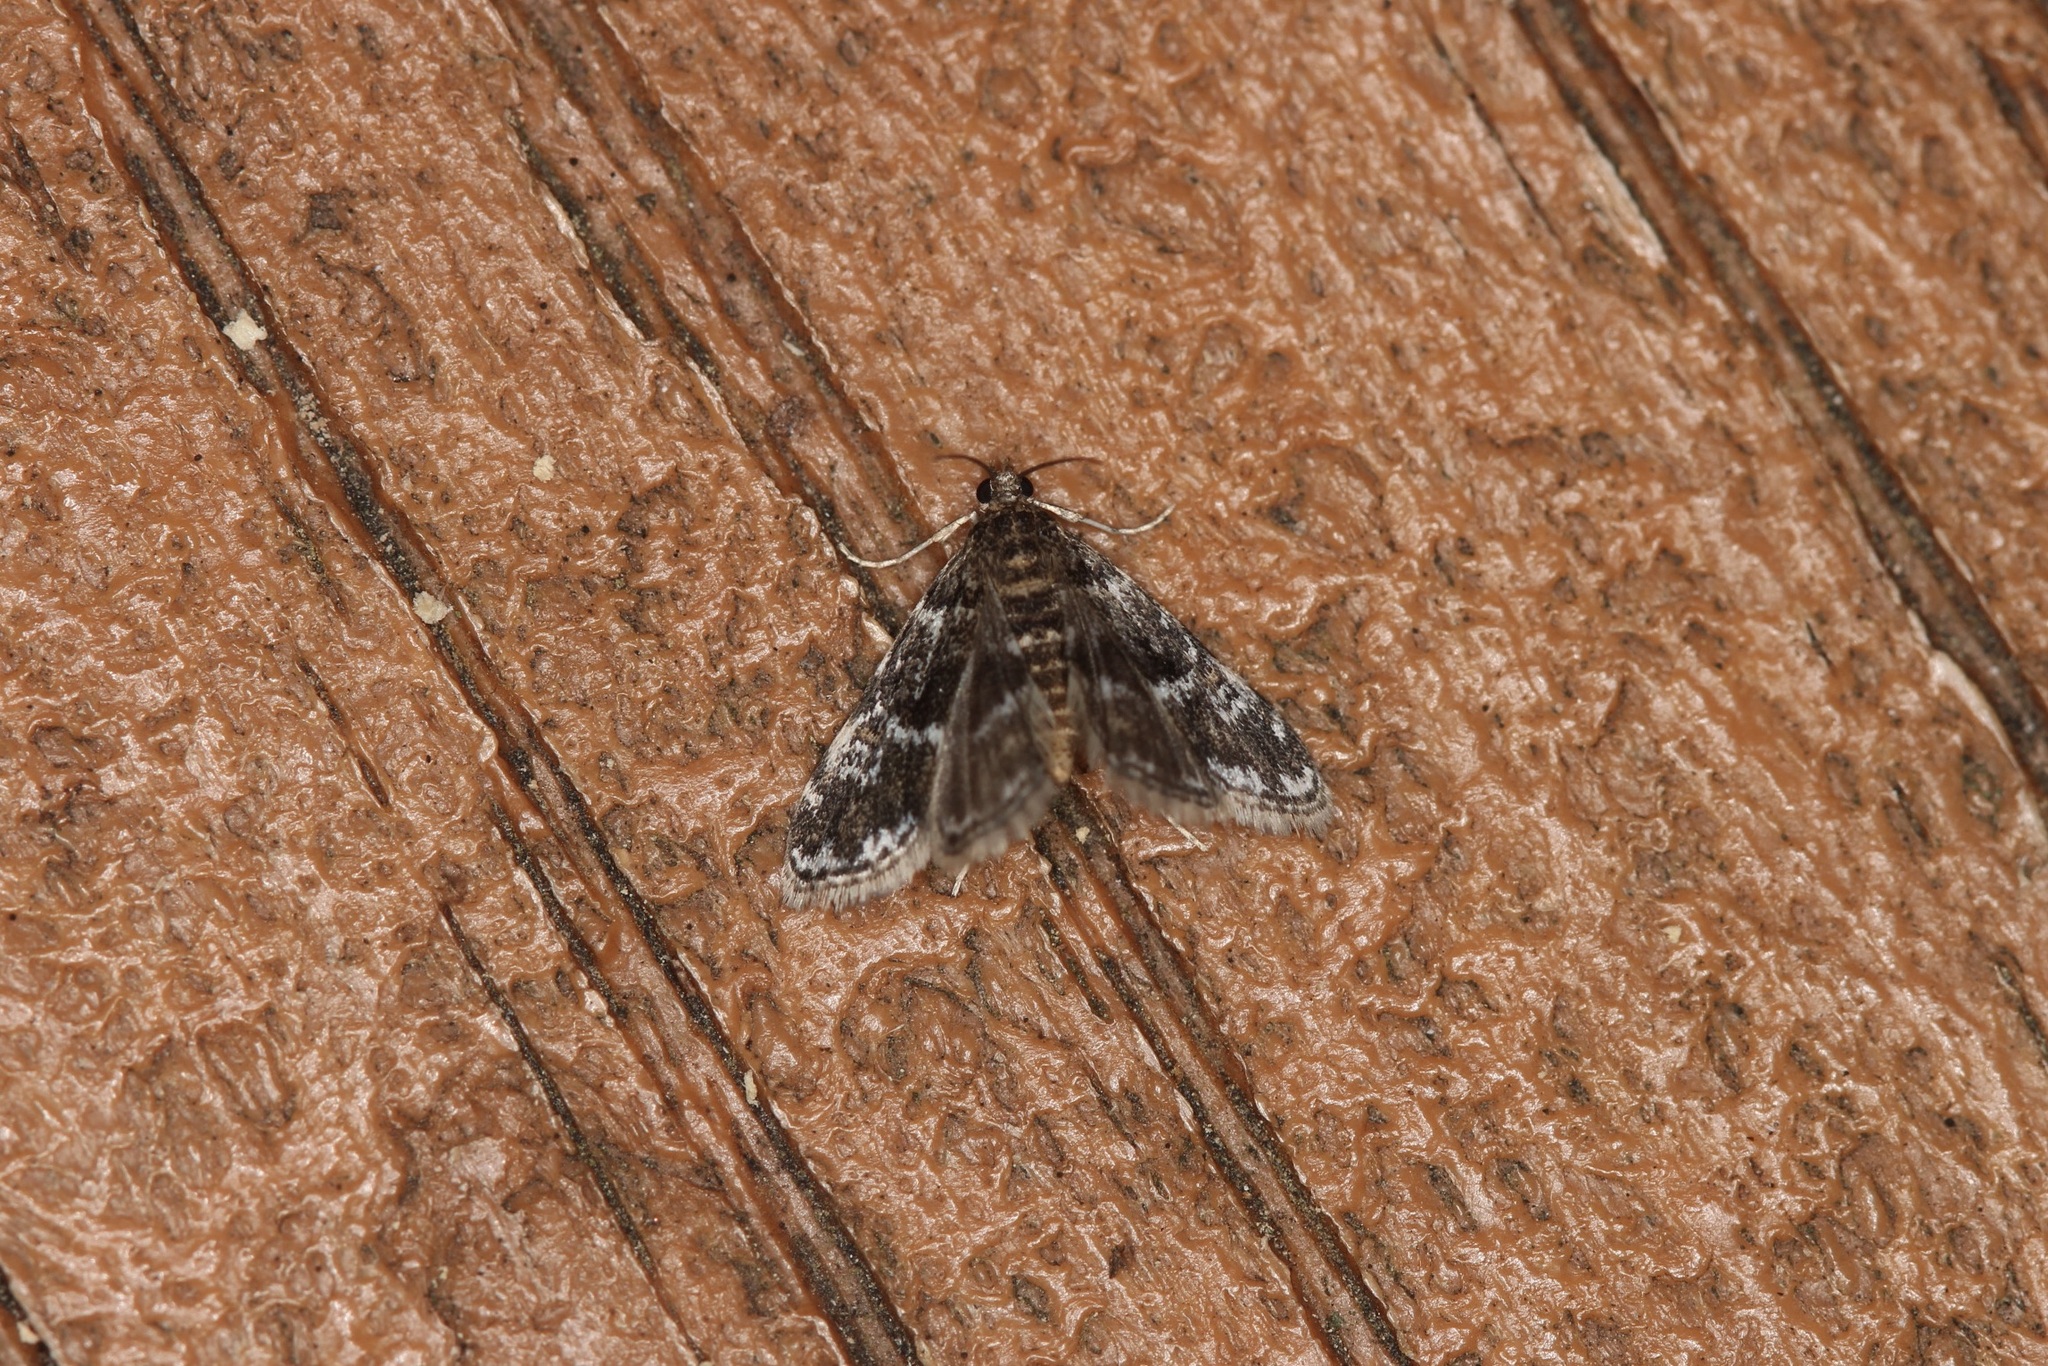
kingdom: Animalia
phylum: Arthropoda
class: Insecta
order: Lepidoptera
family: Crambidae
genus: Elophila
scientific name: Elophila obliteralis
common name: Waterlily leafcutter moth
